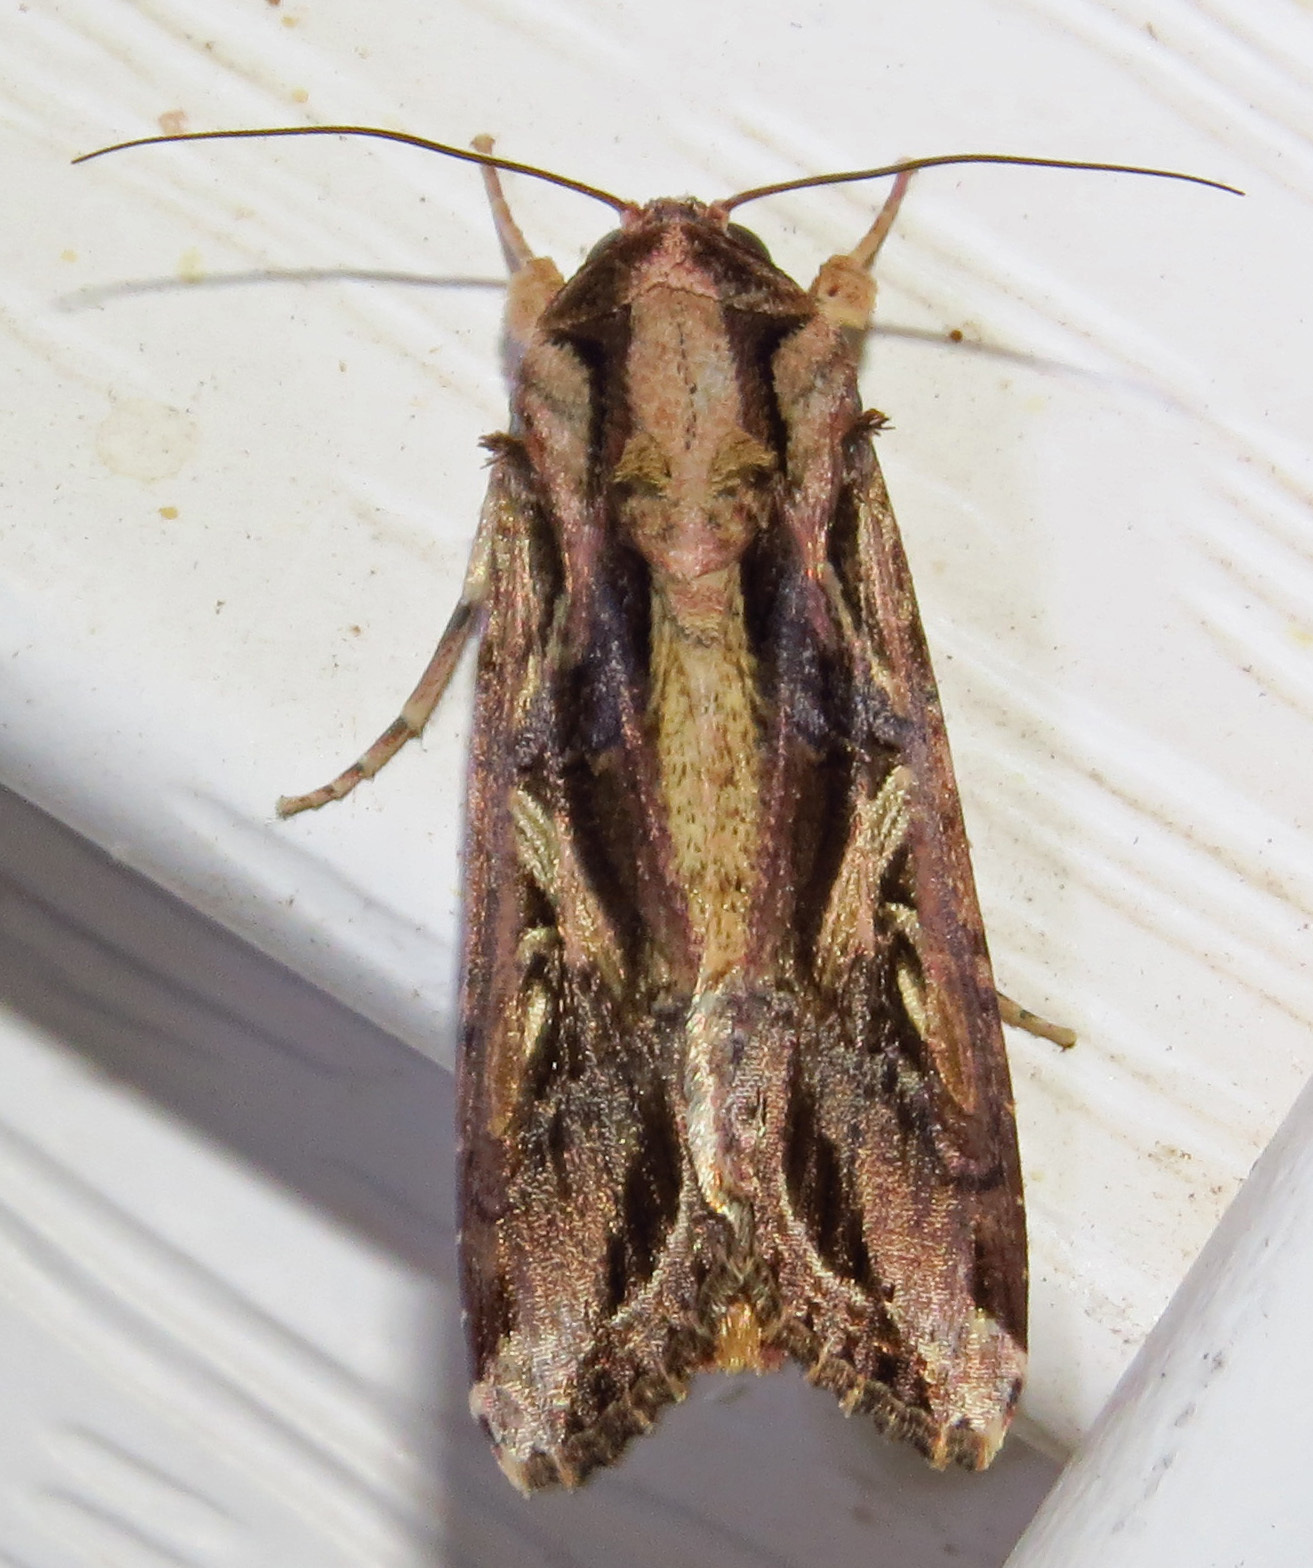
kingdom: Animalia
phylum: Arthropoda
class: Insecta
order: Lepidoptera
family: Noctuidae
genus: Spodoptera
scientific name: Spodoptera dolichos
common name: Sweetpotato armyworm
